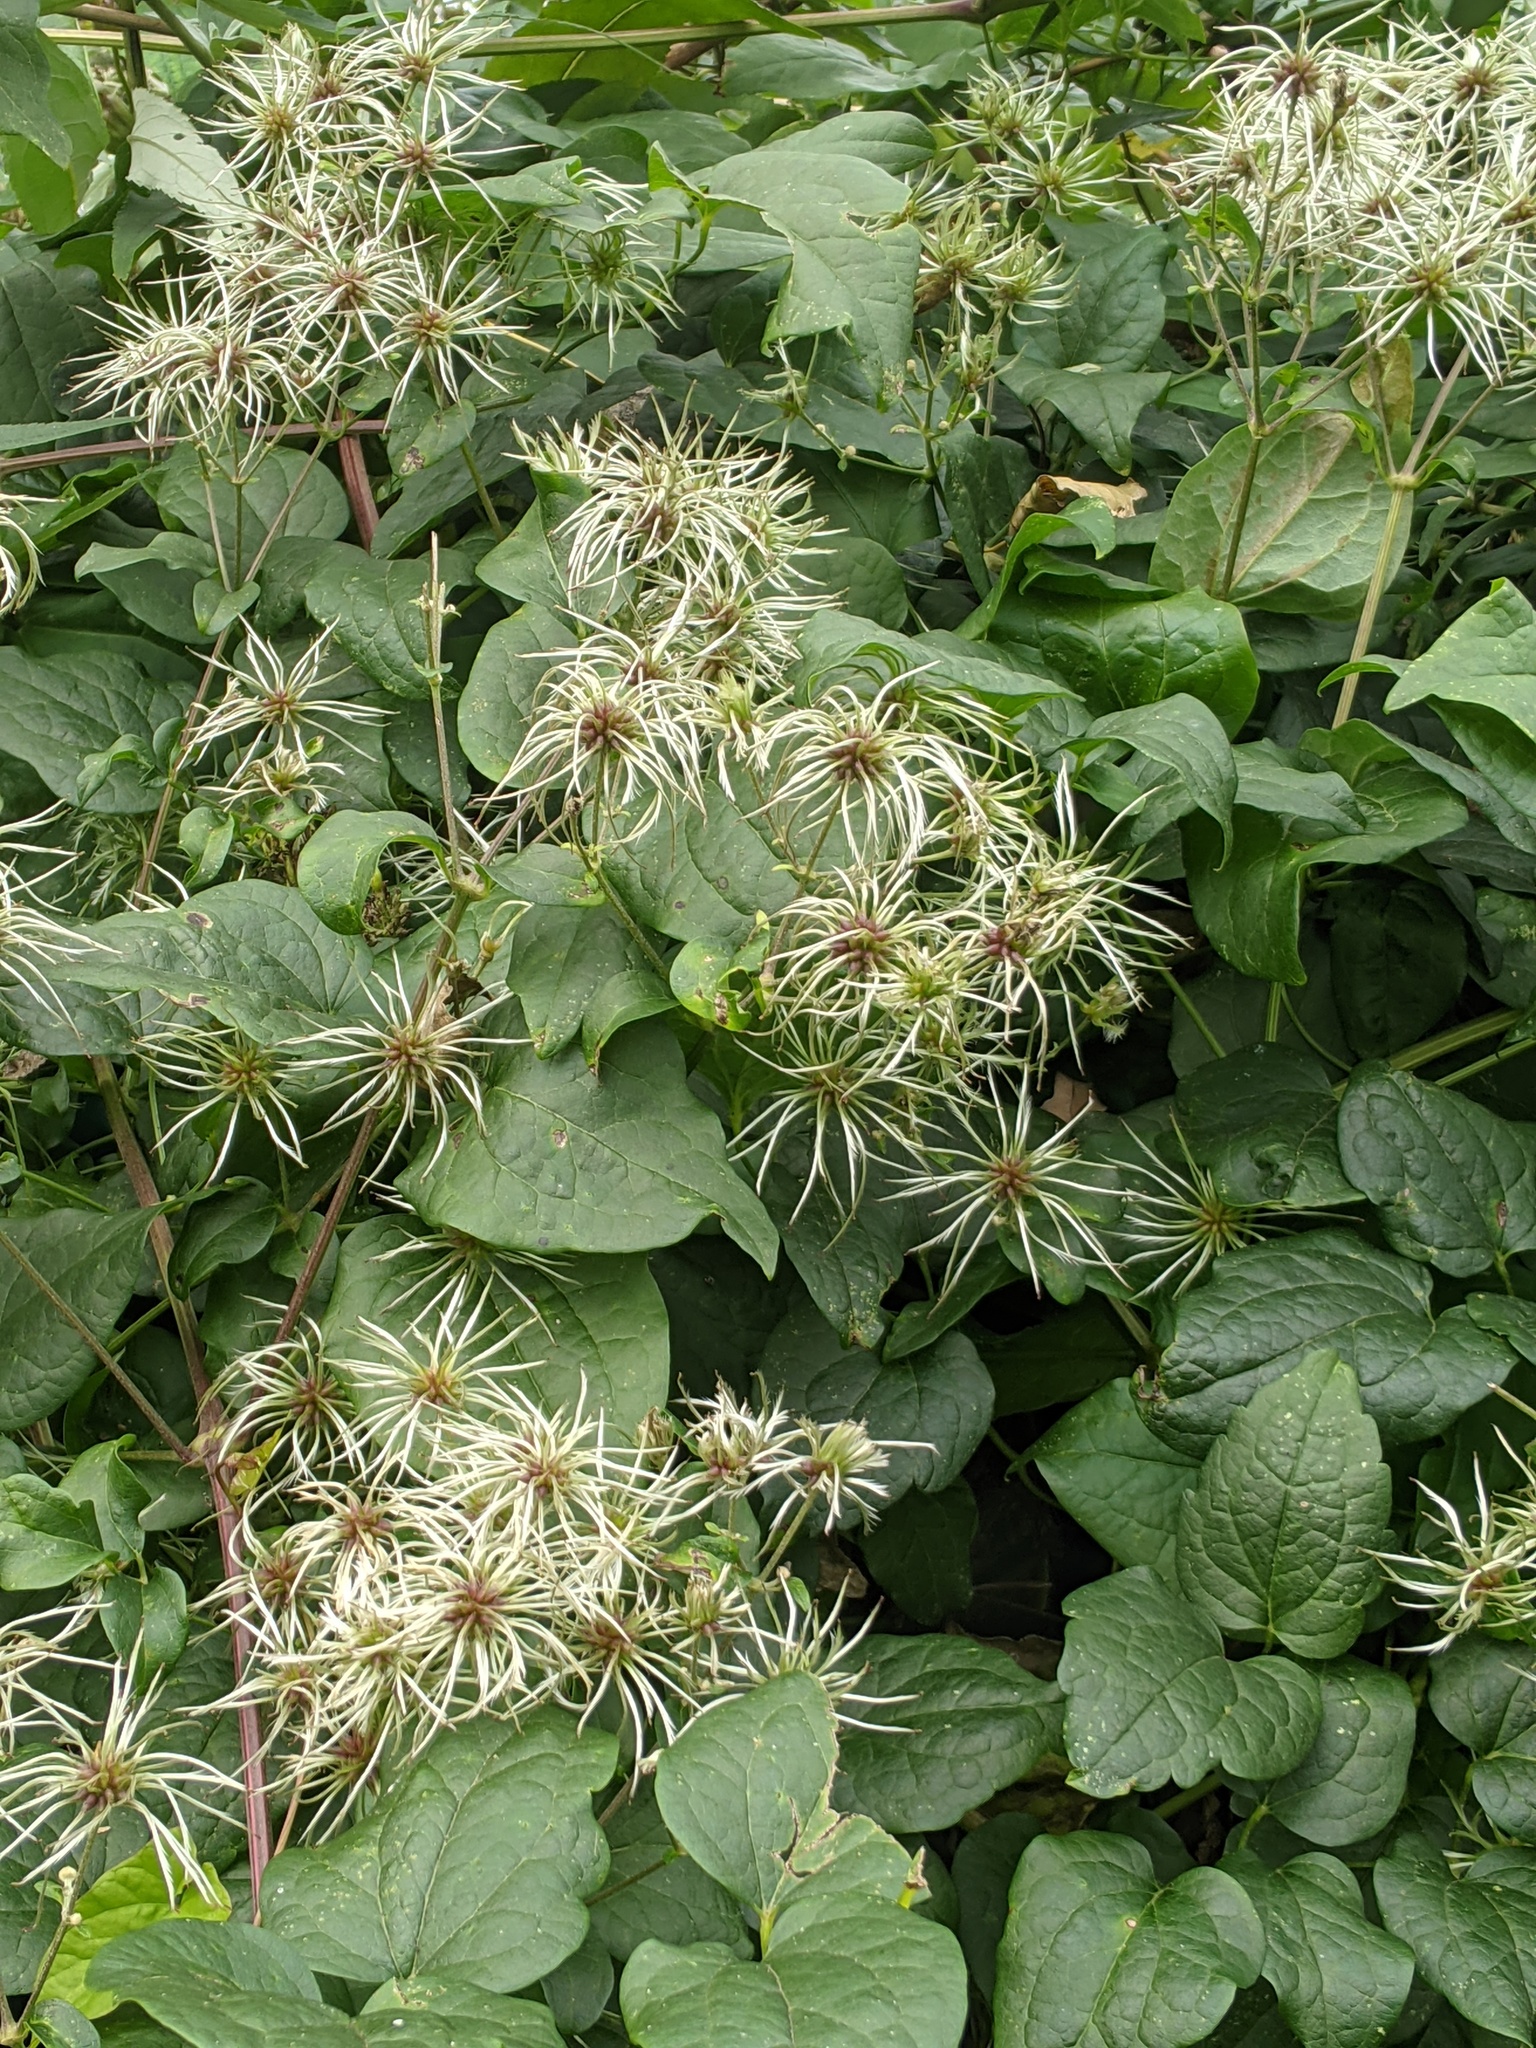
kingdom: Plantae
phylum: Tracheophyta
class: Magnoliopsida
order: Ranunculales
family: Ranunculaceae
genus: Clematis
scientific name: Clematis vitalba
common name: Evergreen clematis
